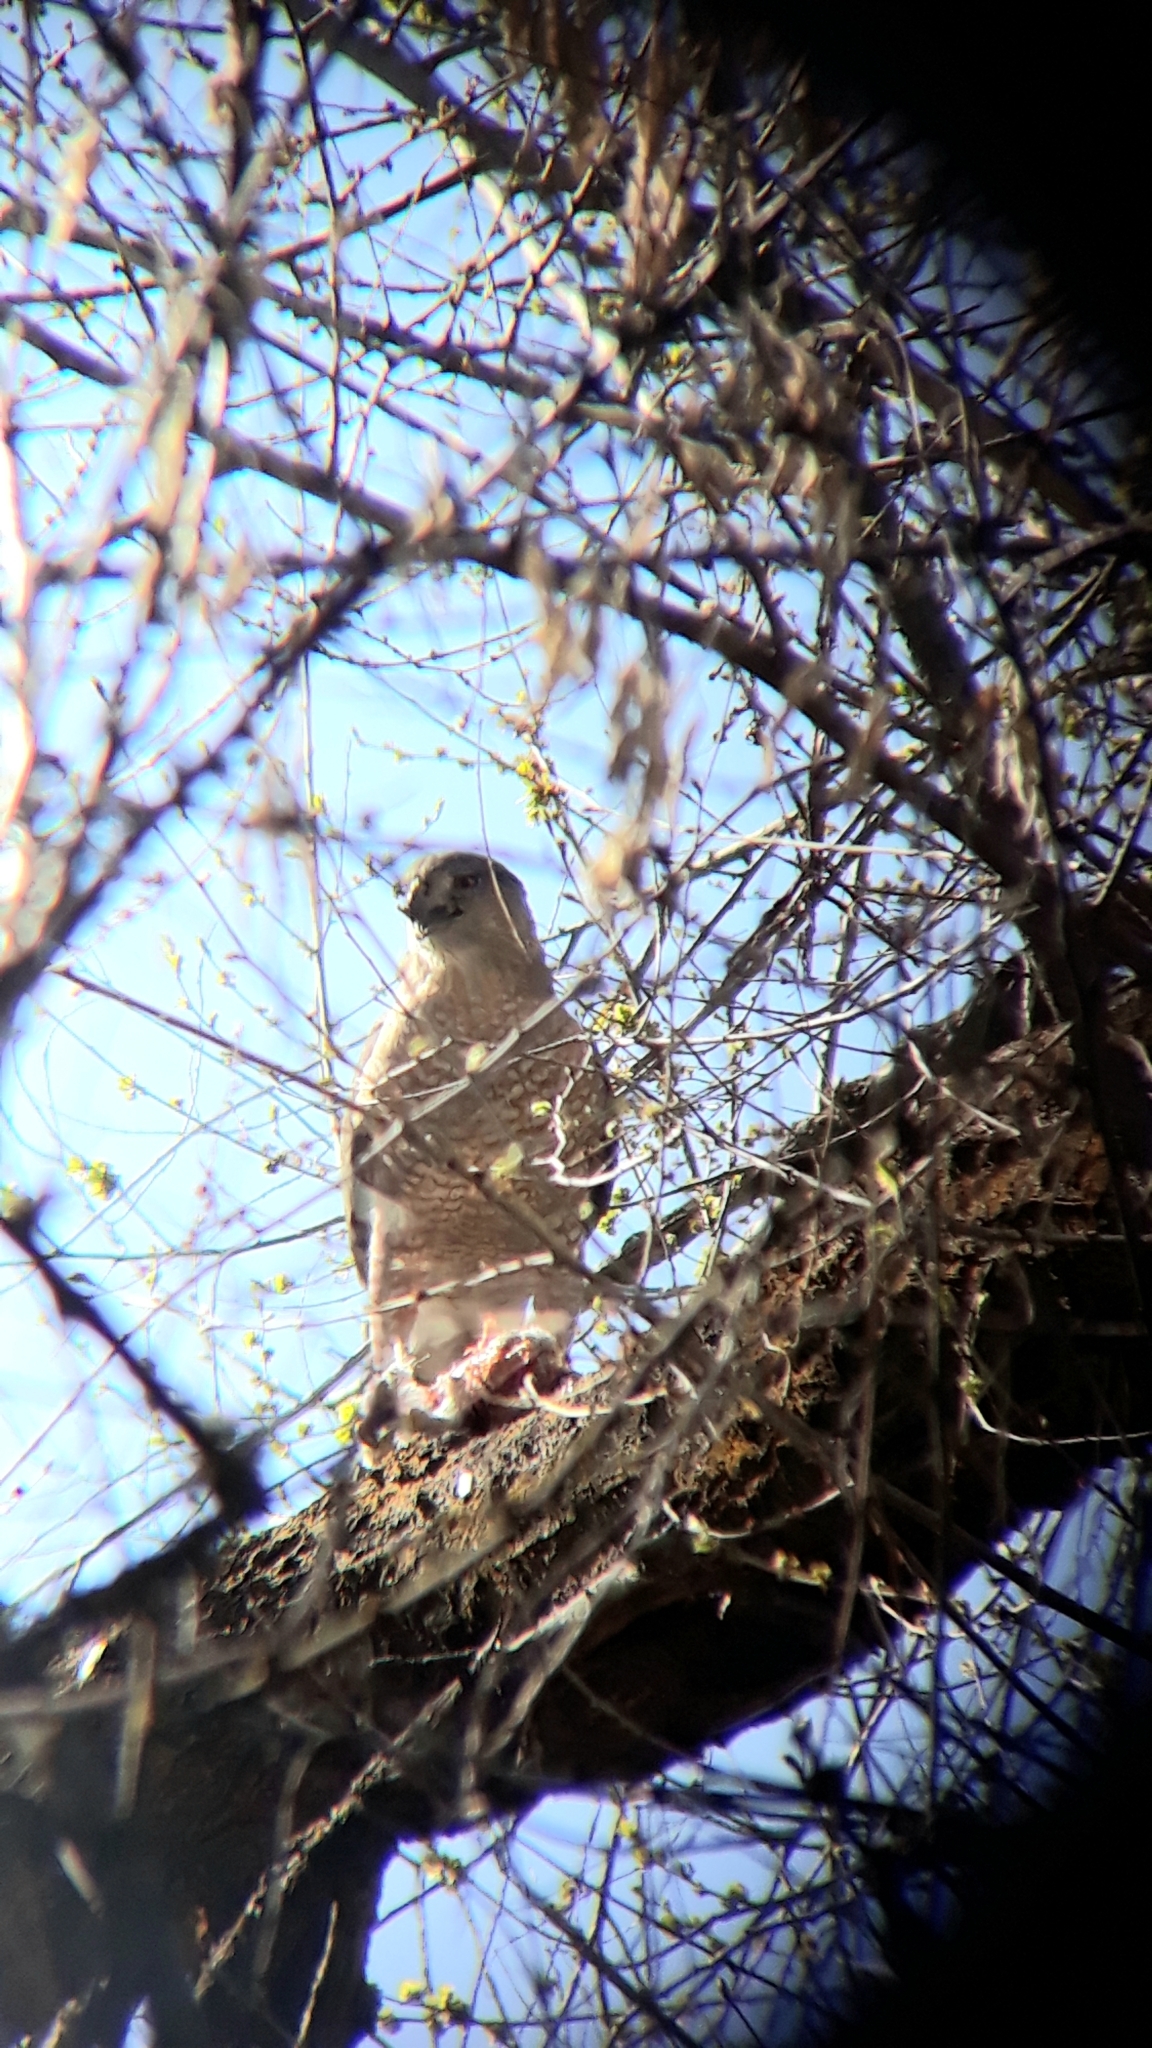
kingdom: Animalia
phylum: Chordata
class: Aves
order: Accipitriformes
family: Accipitridae
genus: Accipiter
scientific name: Accipiter cooperii
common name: Cooper's hawk
